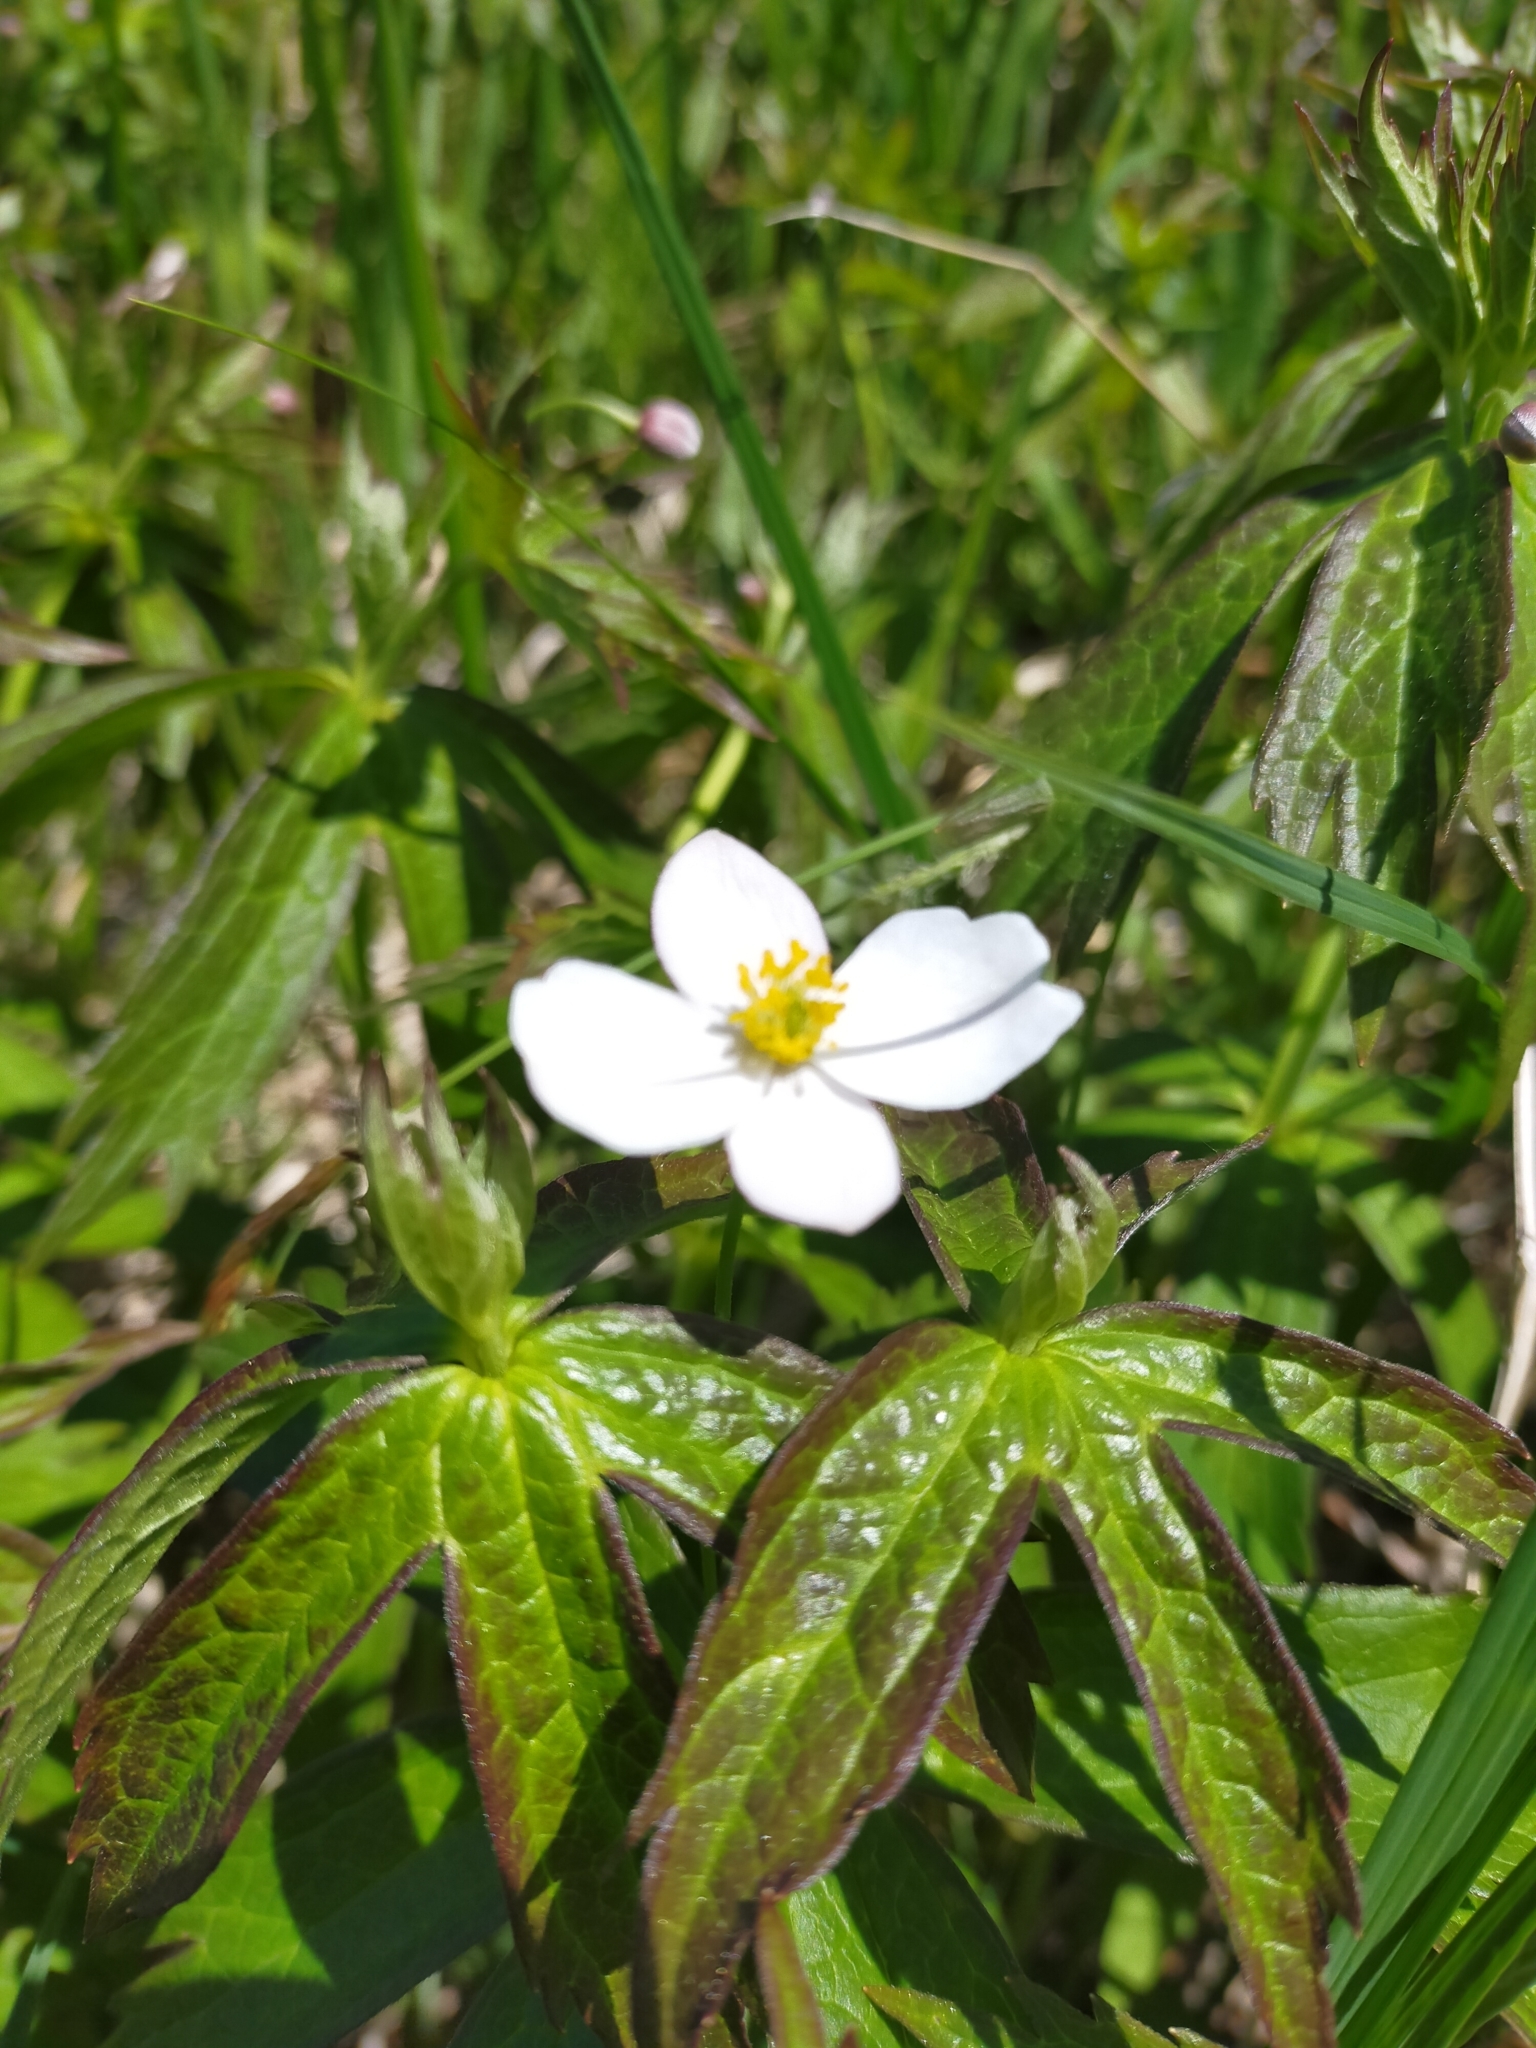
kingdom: Plantae
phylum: Tracheophyta
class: Magnoliopsida
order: Ranunculales
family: Ranunculaceae
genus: Anemonastrum
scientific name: Anemonastrum dichotomum
